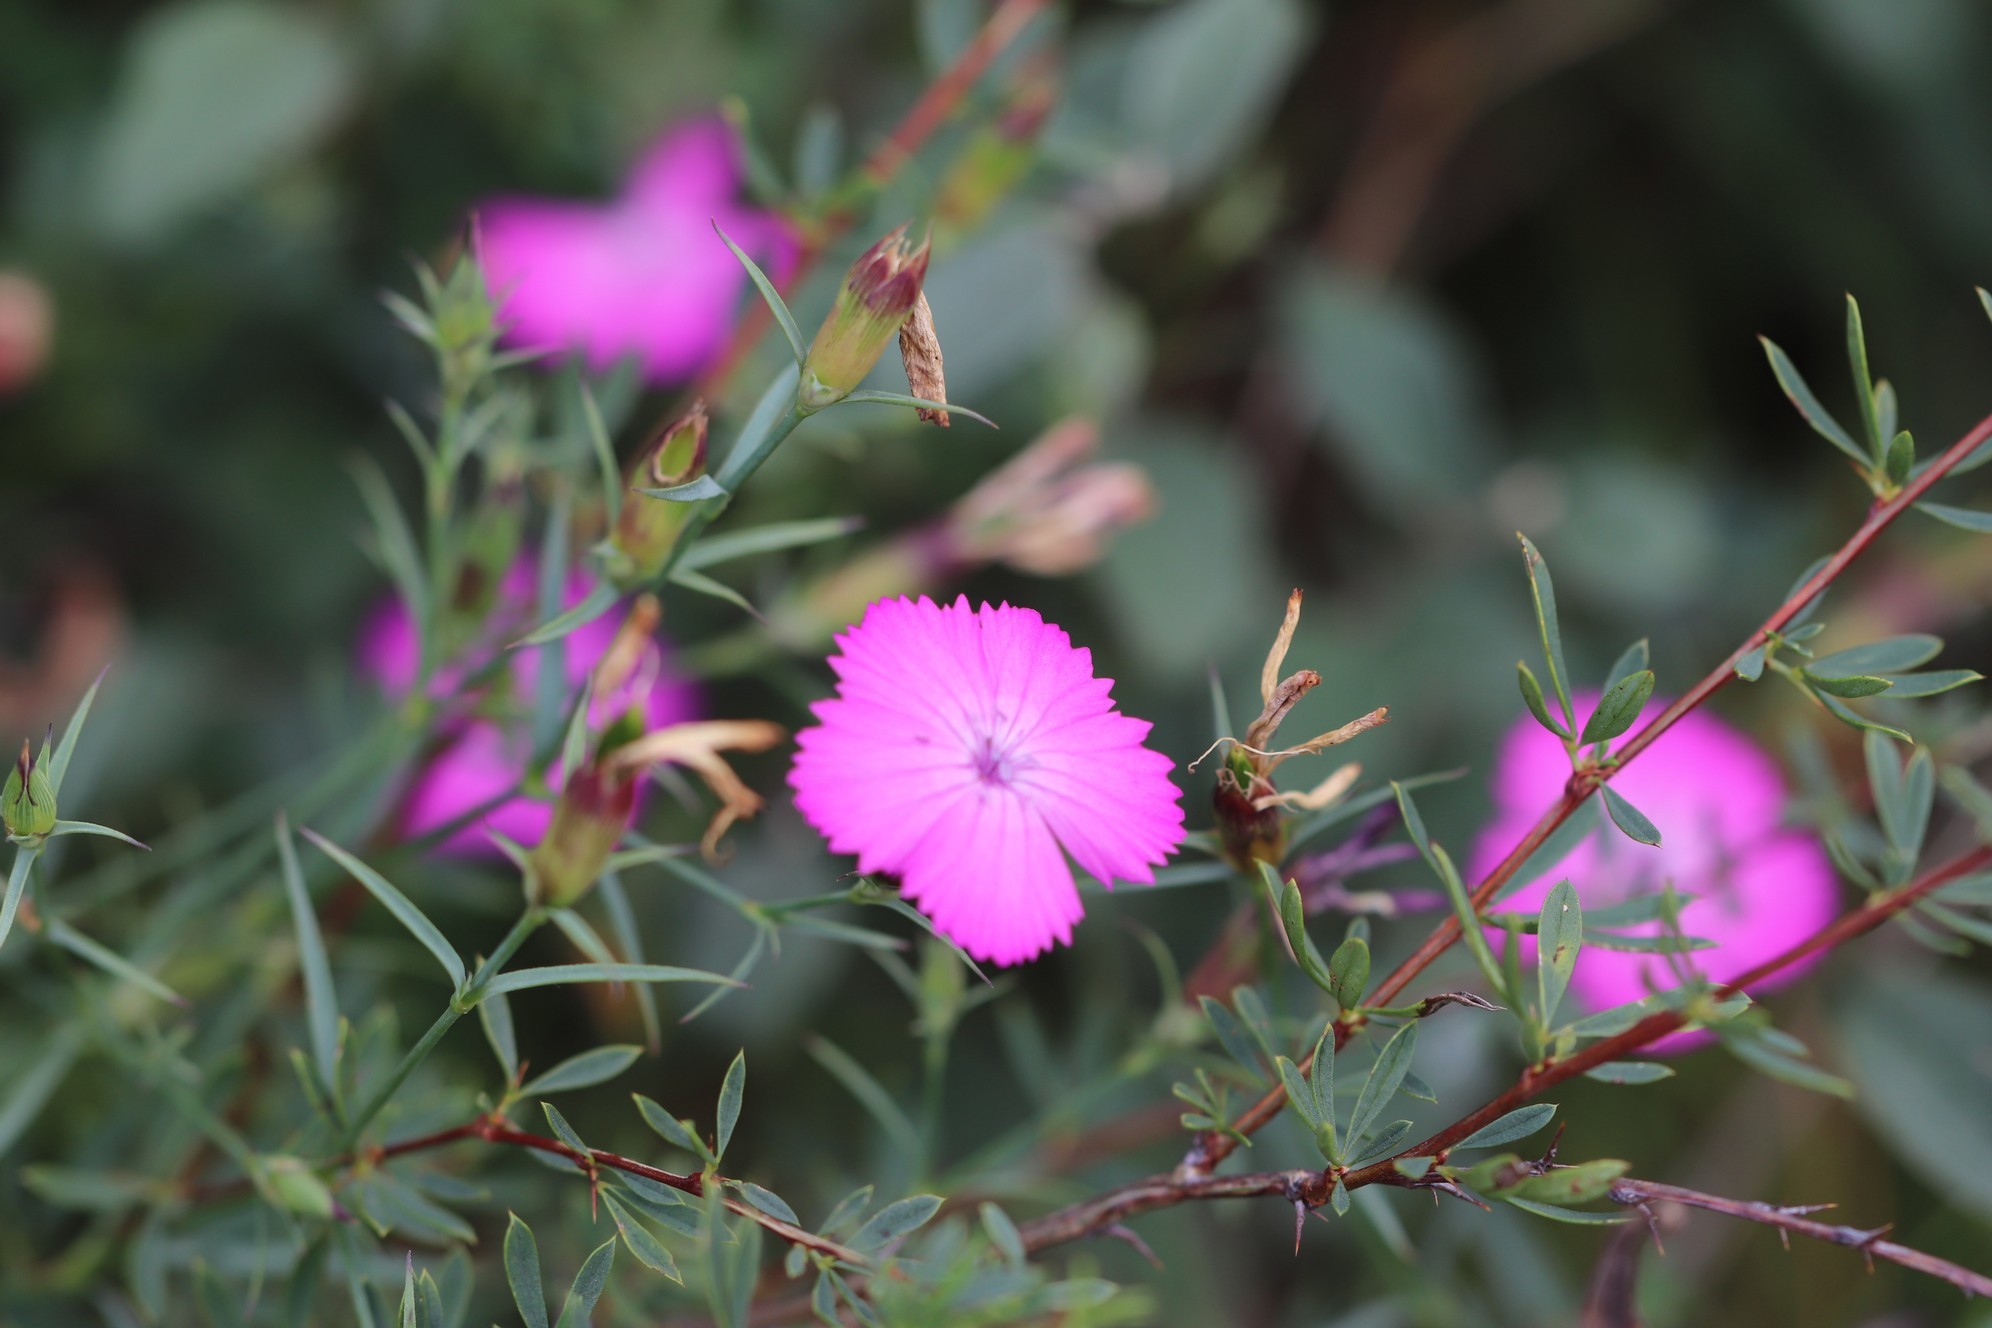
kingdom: Plantae
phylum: Tracheophyta
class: Magnoliopsida
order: Caryophyllales
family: Caryophyllaceae
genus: Dianthus
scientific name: Dianthus chinensis
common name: Rainbow pink
